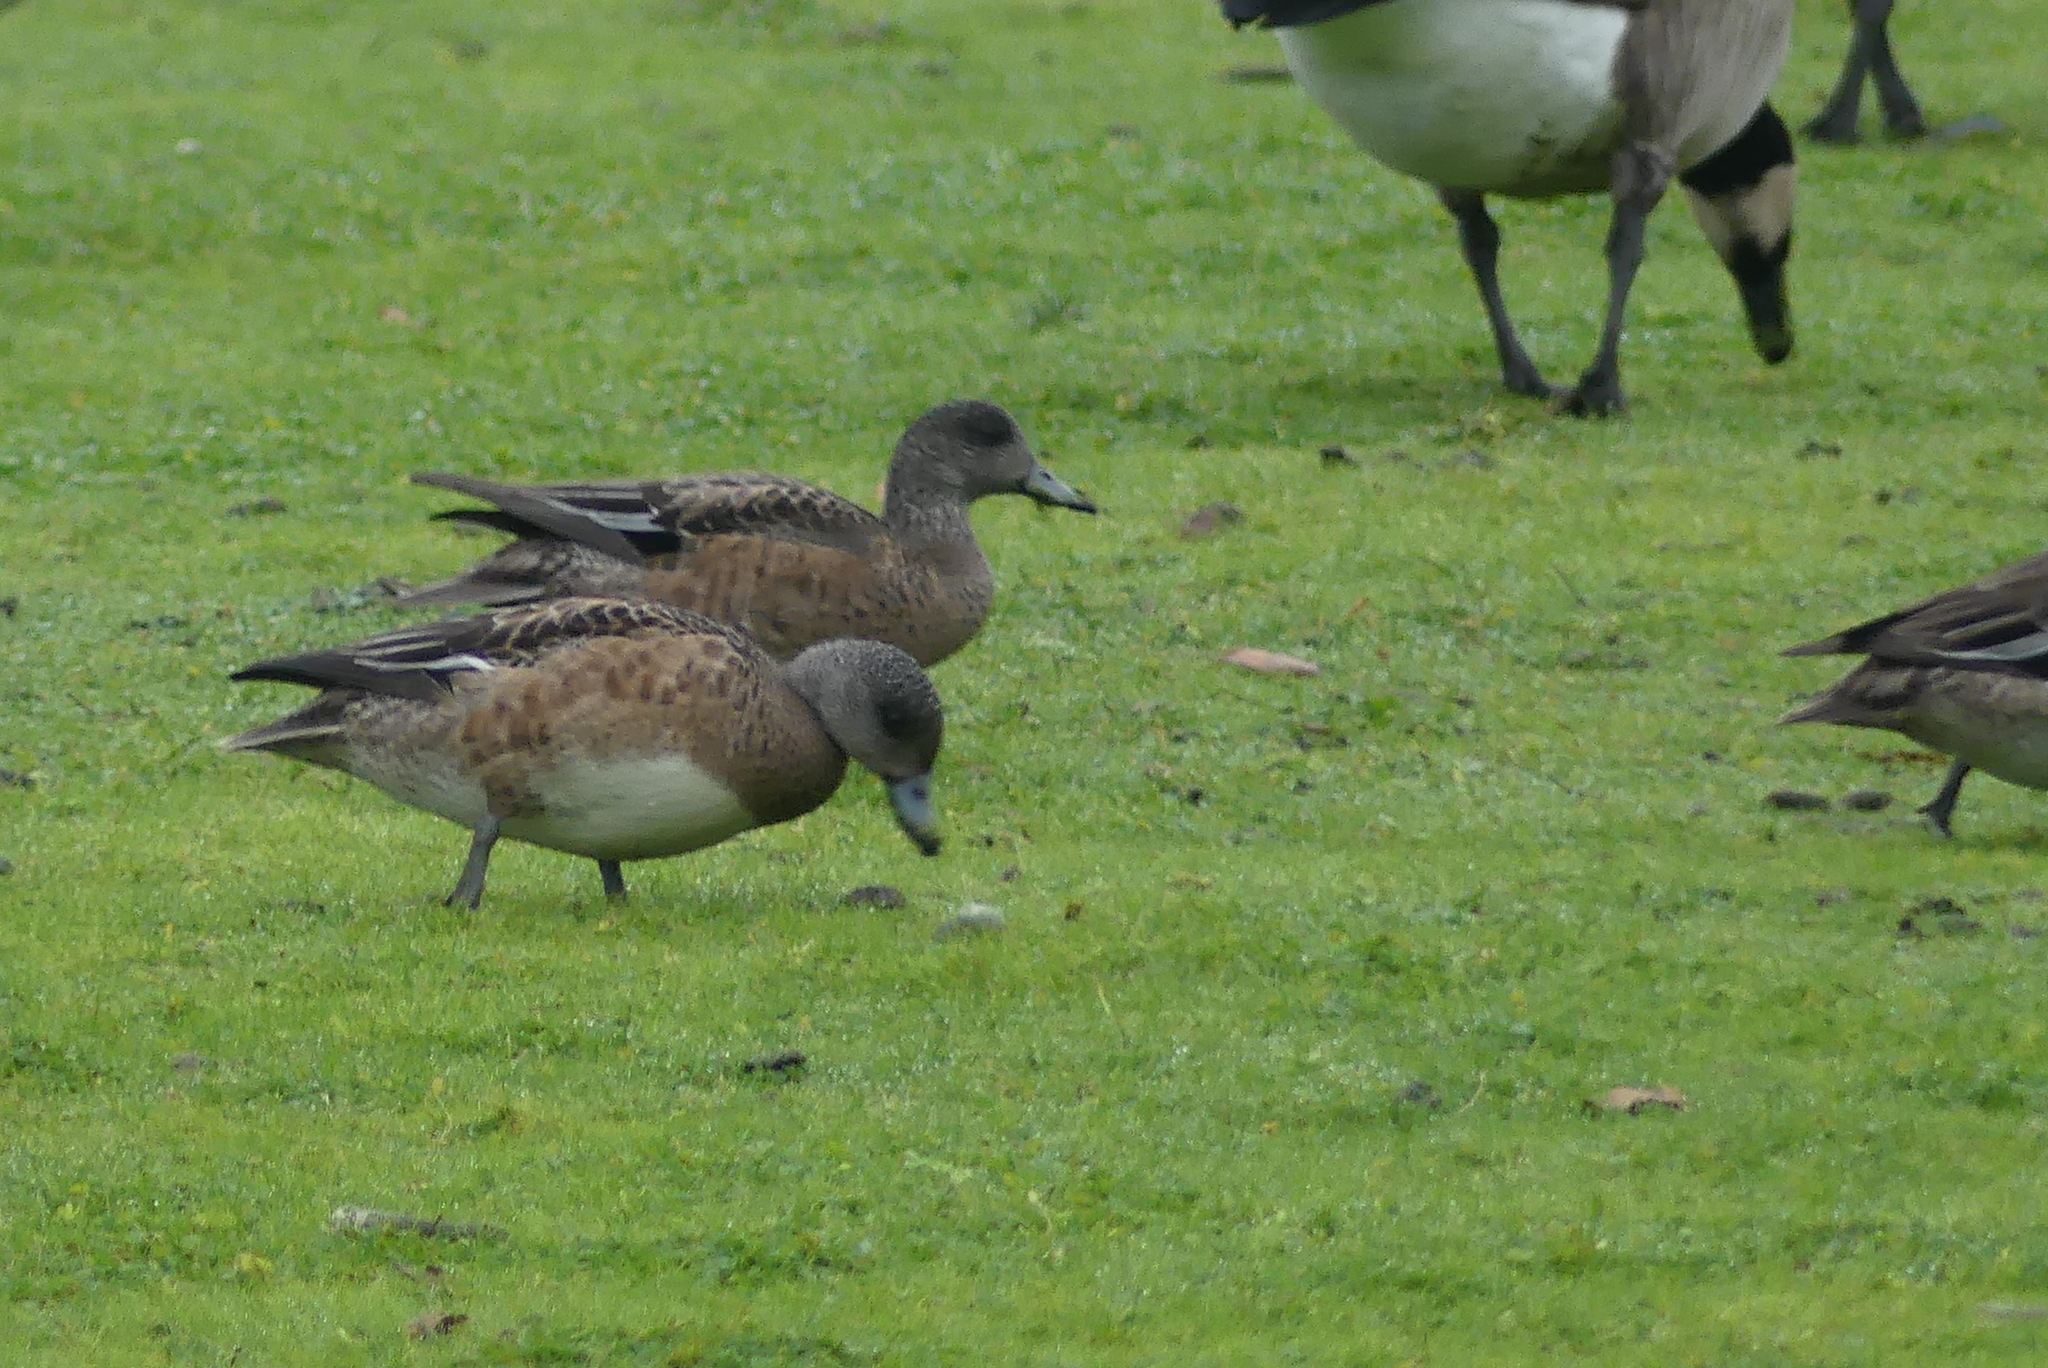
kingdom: Animalia
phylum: Chordata
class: Aves
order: Anseriformes
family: Anatidae
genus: Mareca
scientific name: Mareca americana
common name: American wigeon
